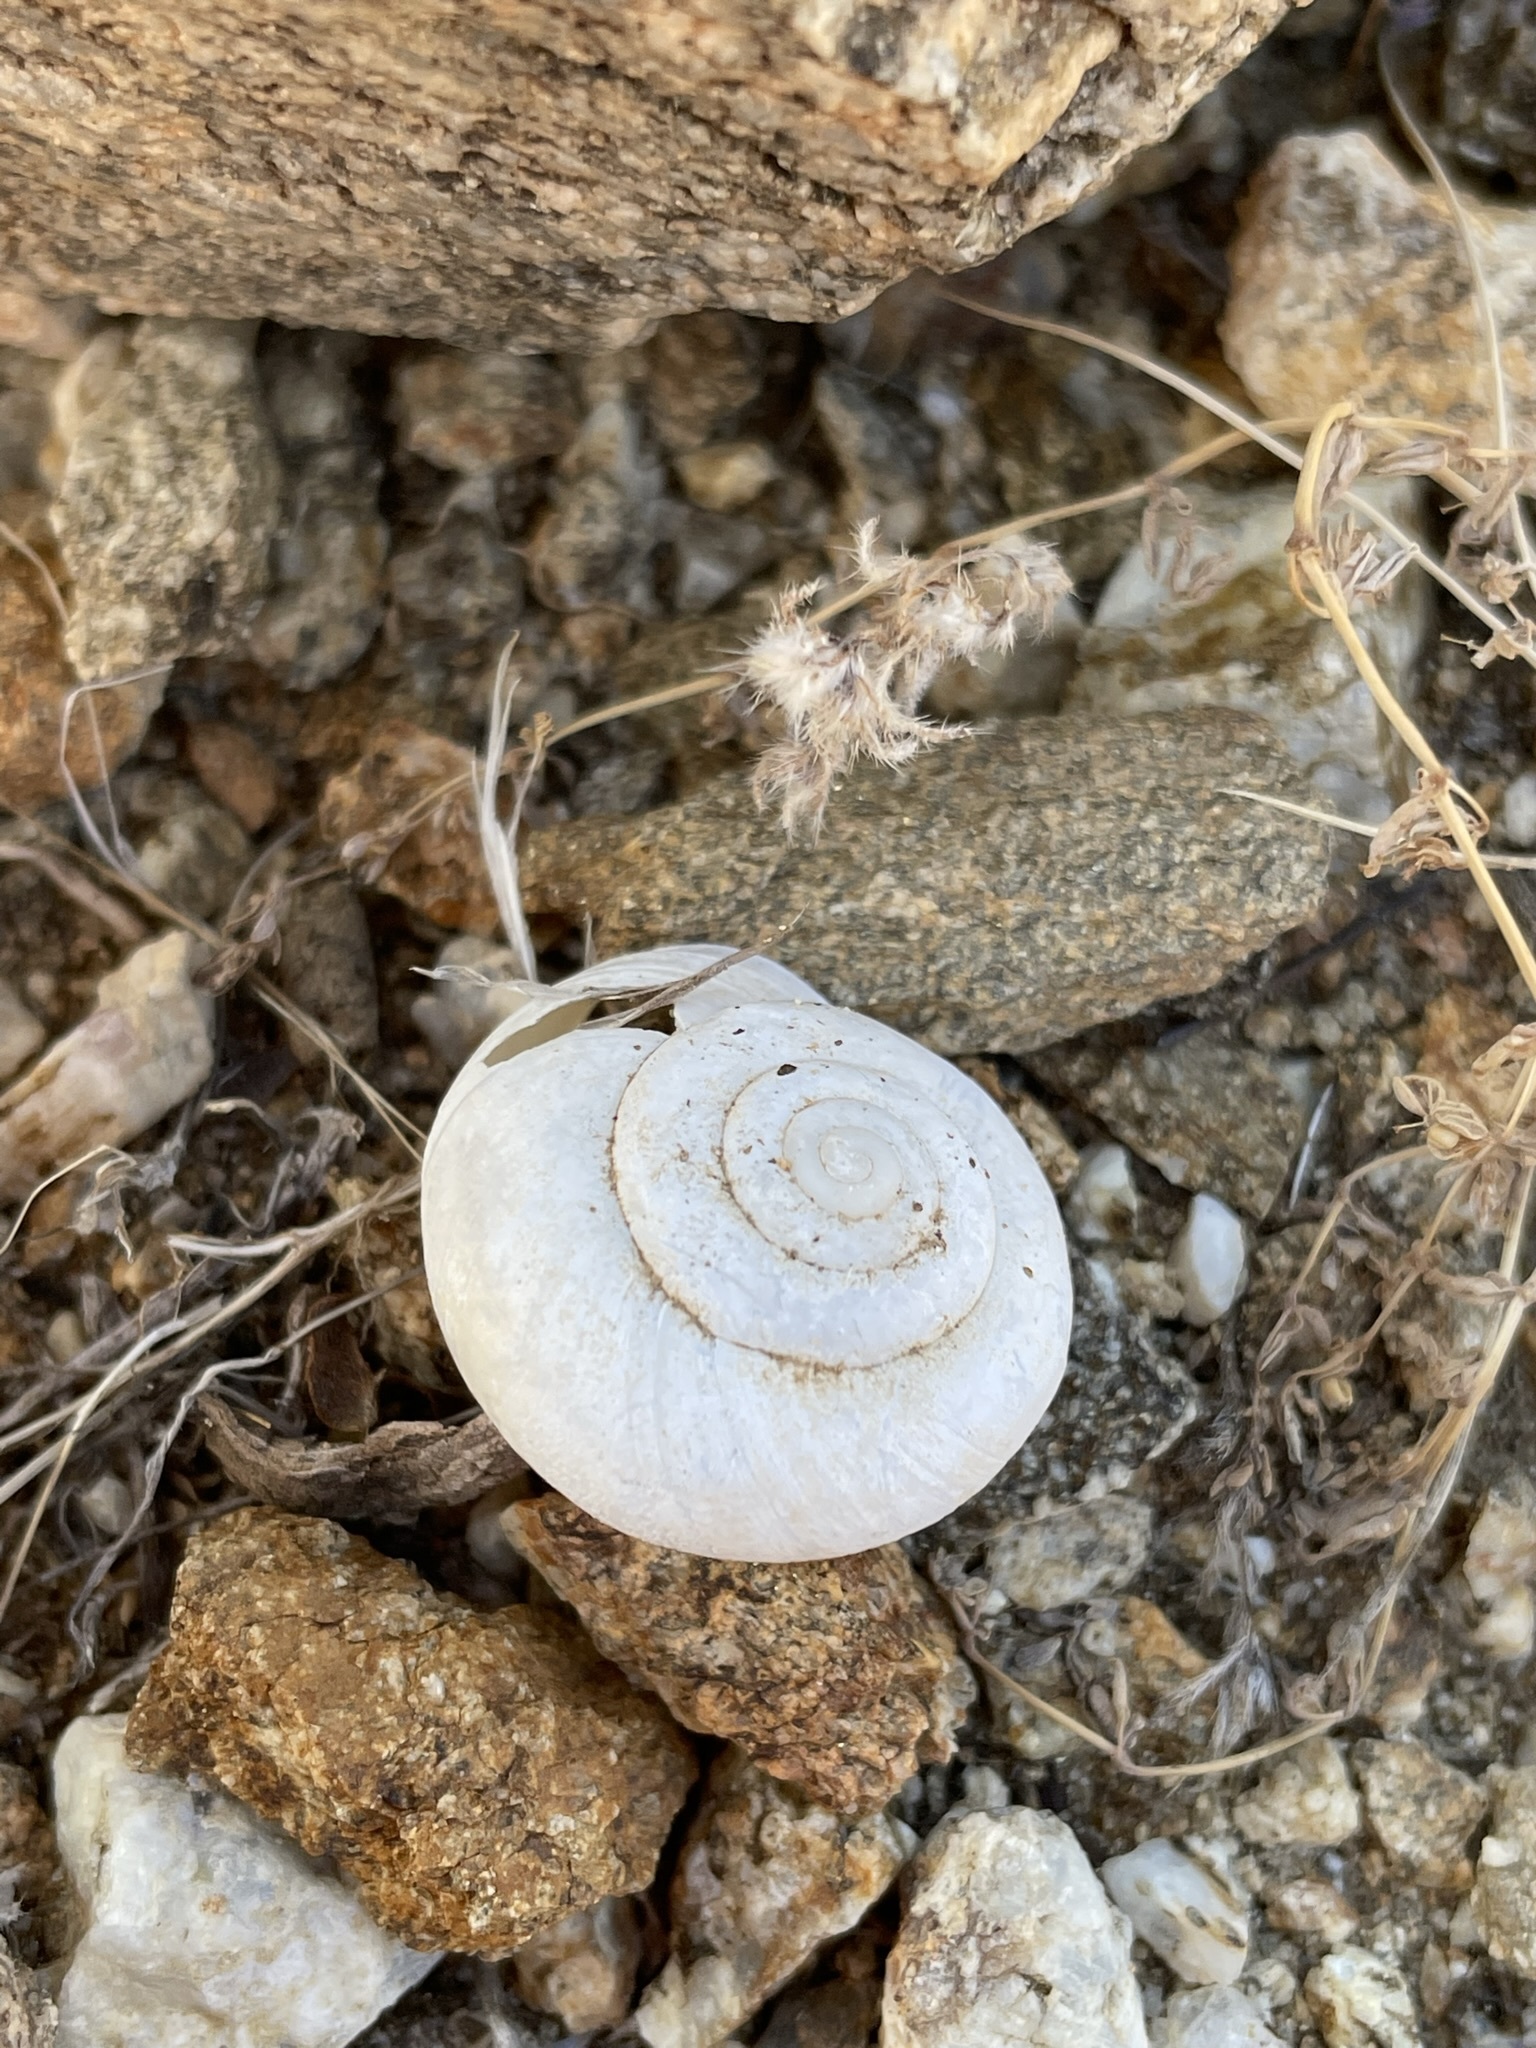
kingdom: Animalia
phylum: Mollusca
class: Gastropoda
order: Stylommatophora
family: Xanthonychidae
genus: Sonorelix
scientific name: Sonorelix borregoensis
